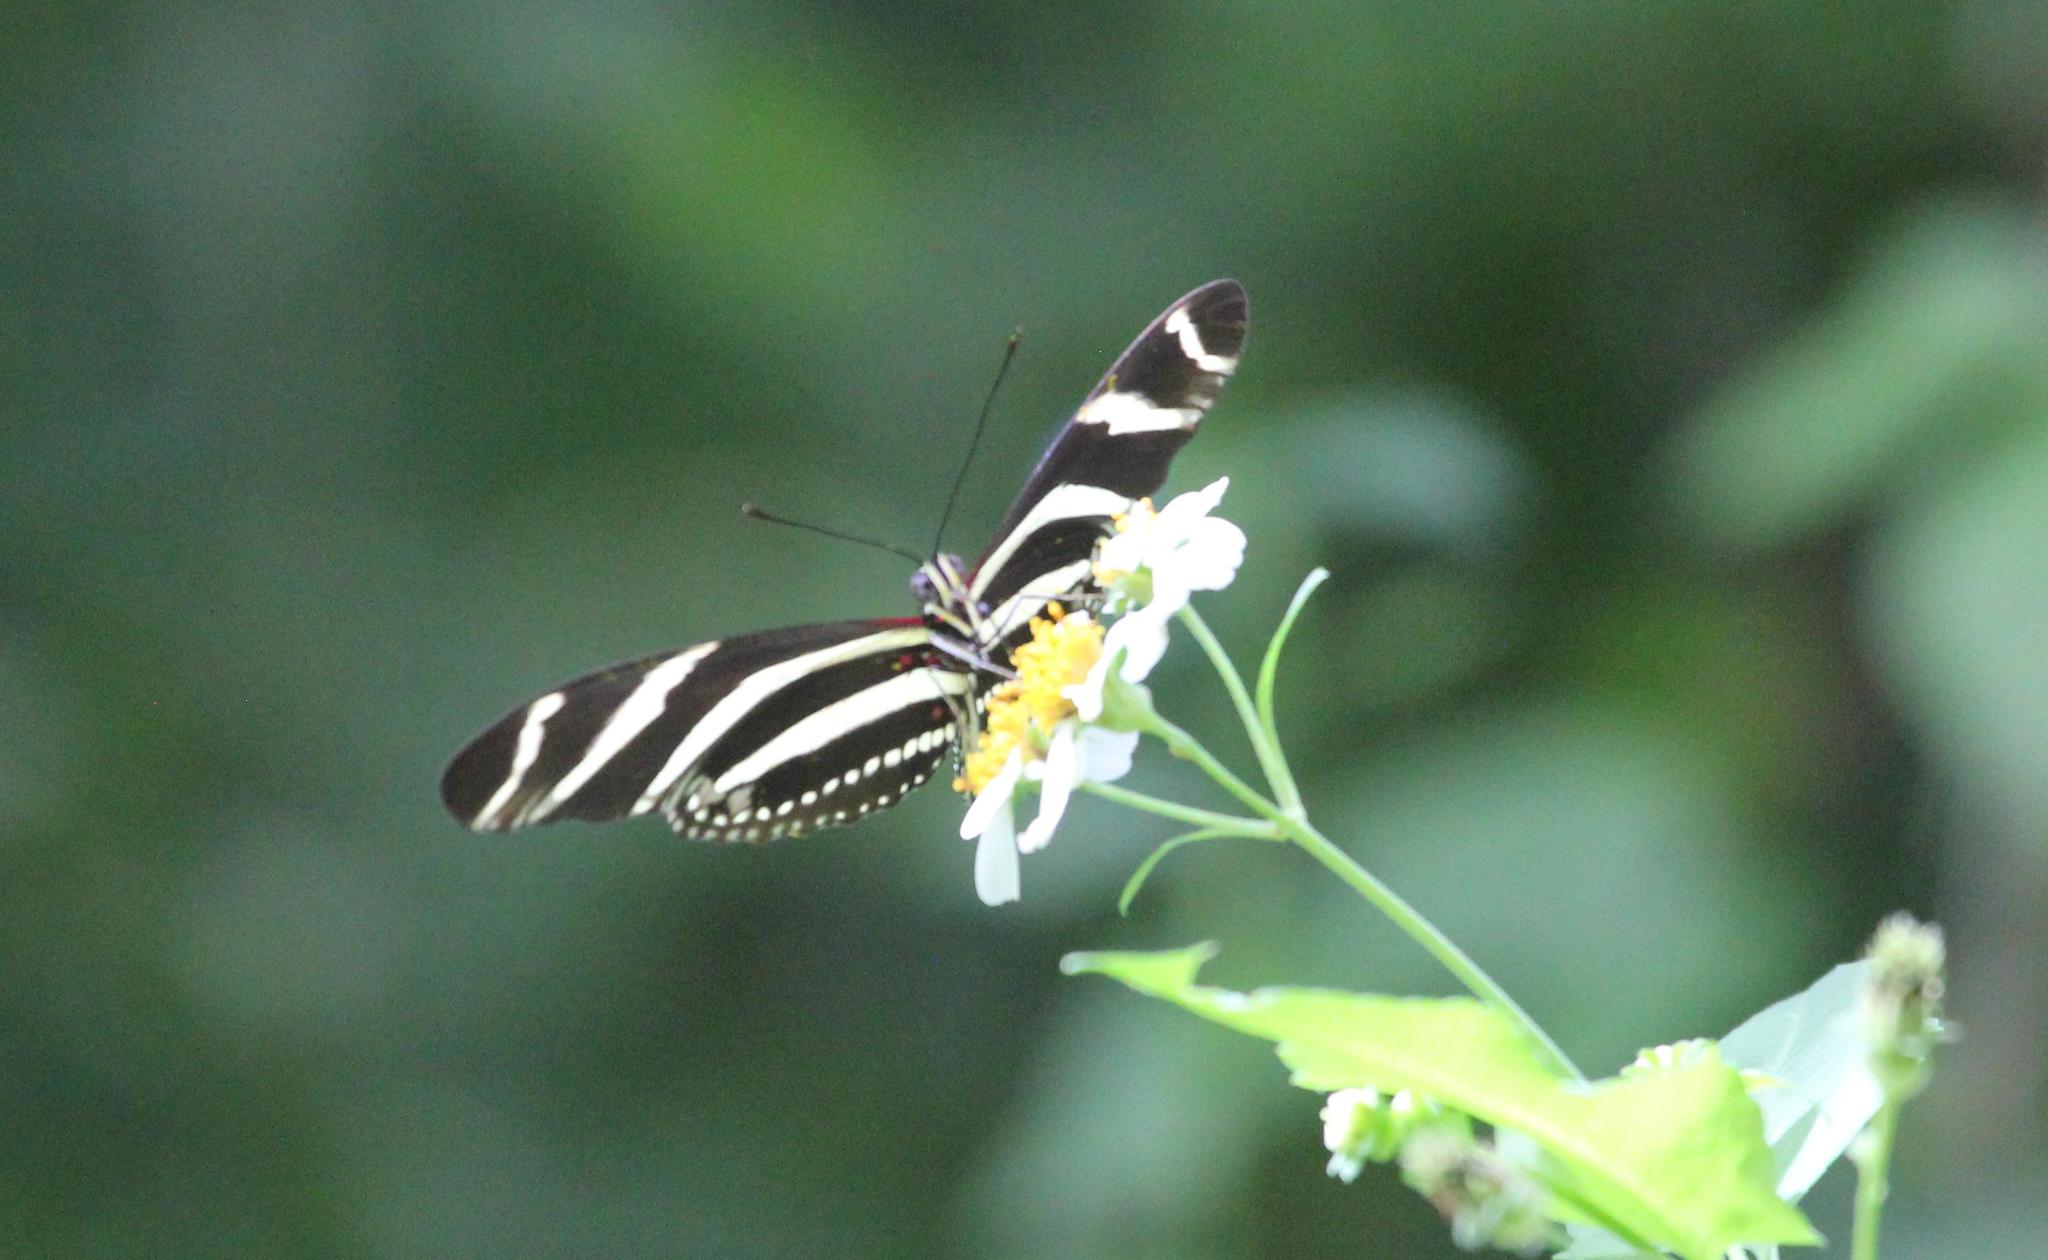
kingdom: Animalia
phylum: Arthropoda
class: Insecta
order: Lepidoptera
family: Nymphalidae
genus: Heliconius
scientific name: Heliconius charithonia
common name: Zebra long wing
